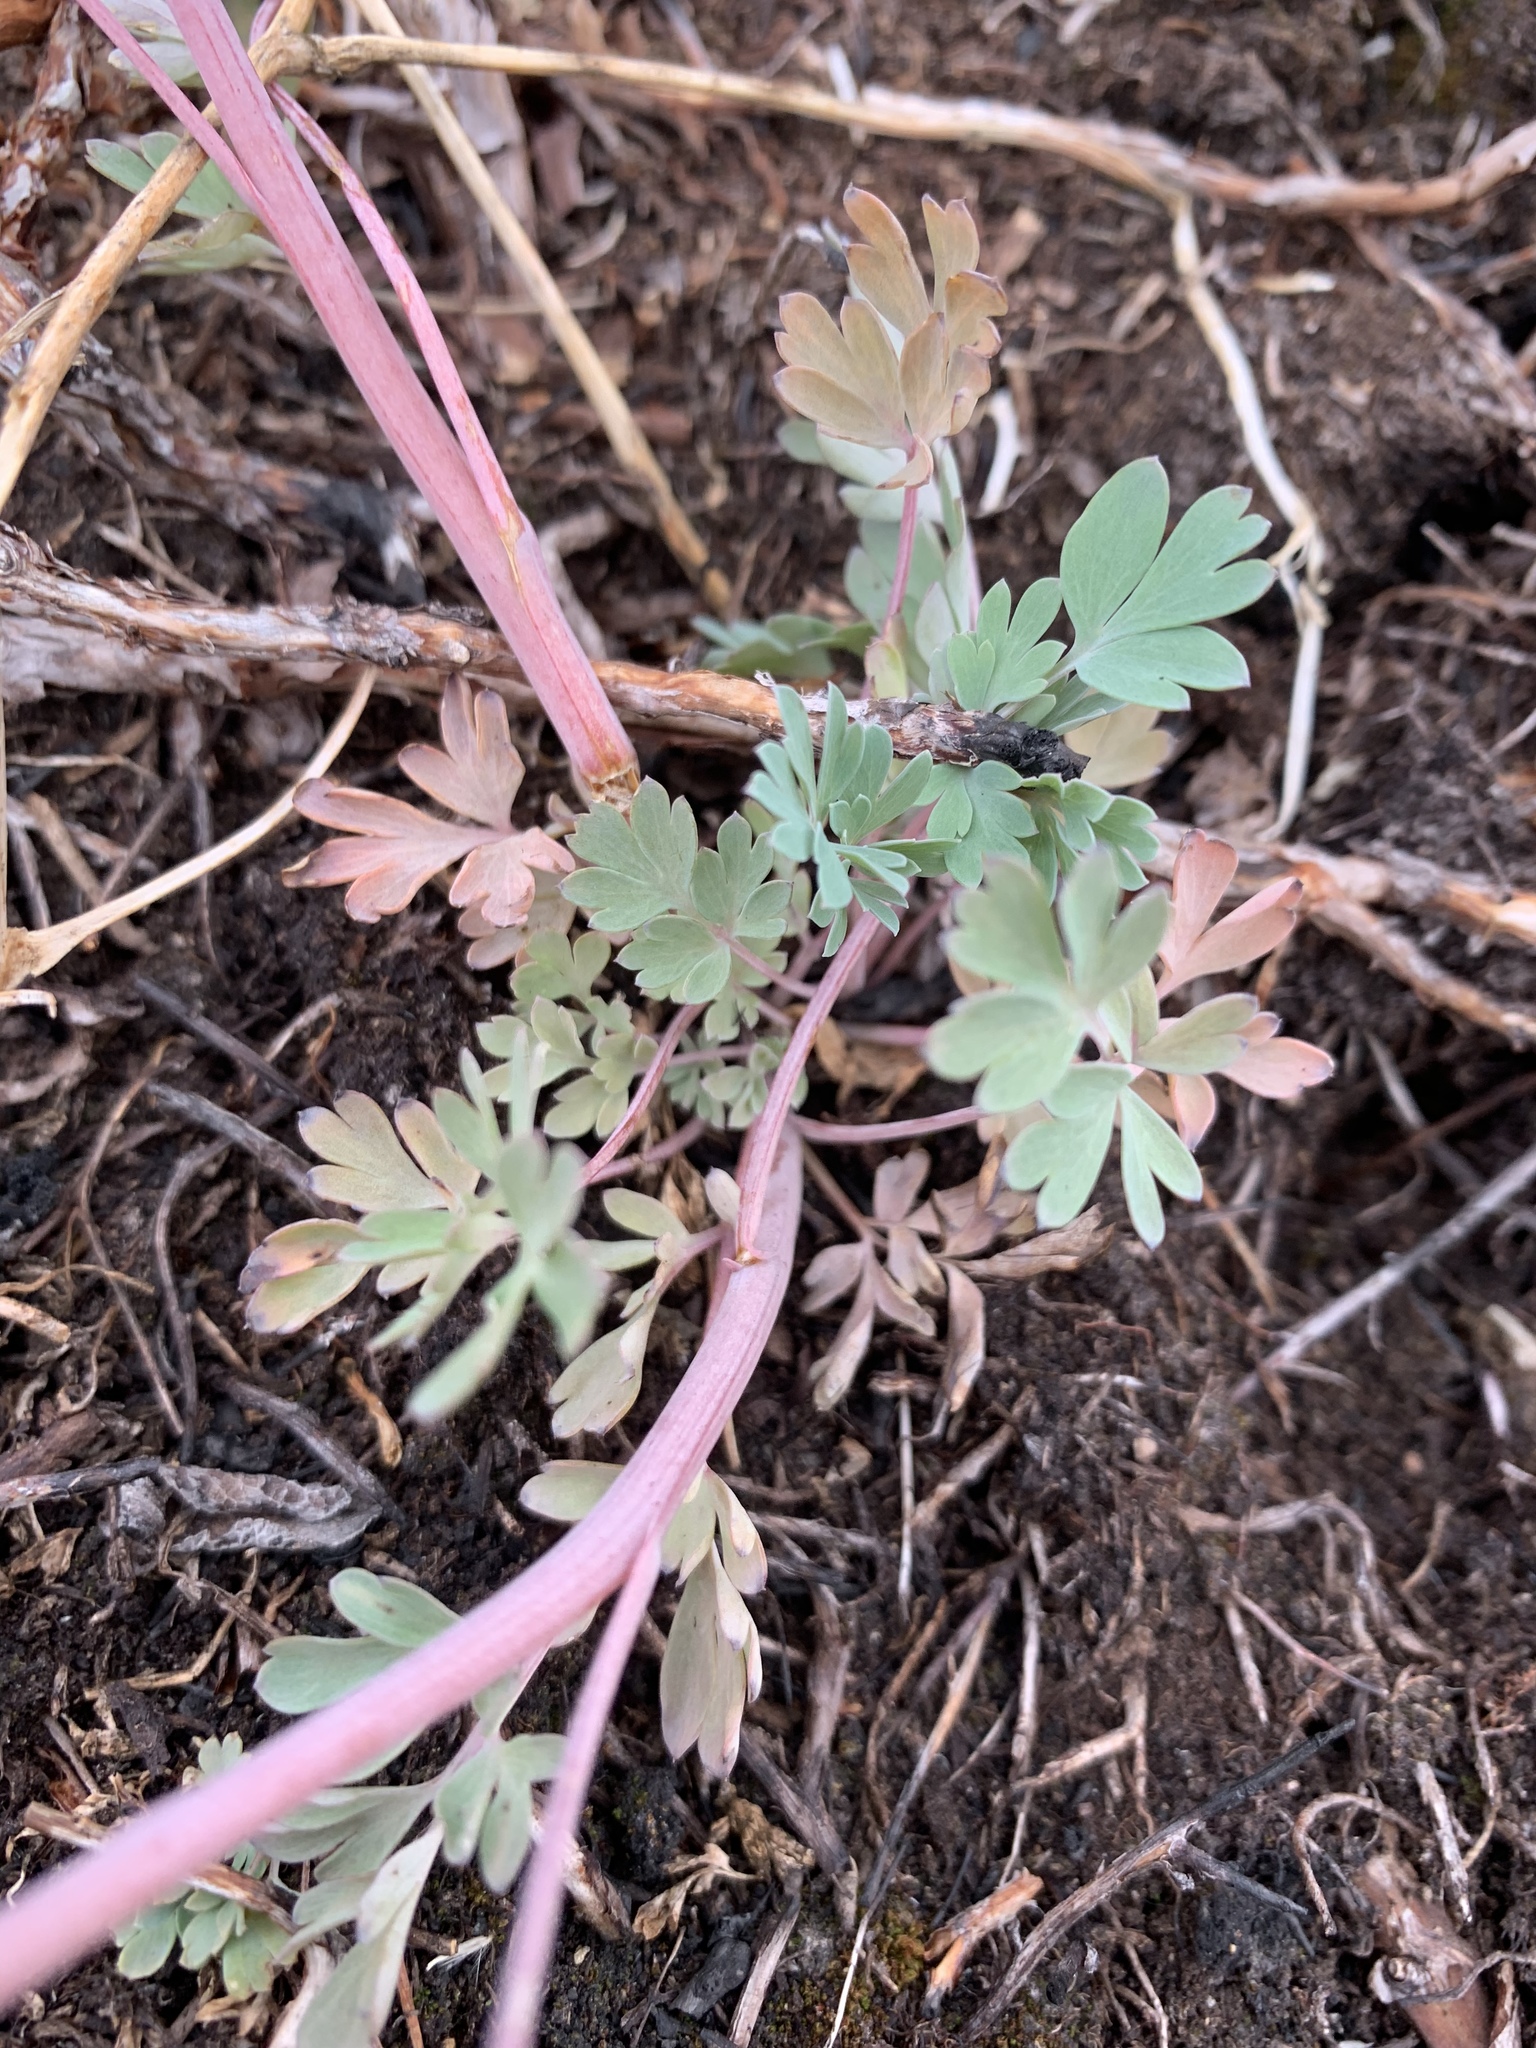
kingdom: Plantae
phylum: Tracheophyta
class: Magnoliopsida
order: Ranunculales
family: Papaveraceae
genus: Capnoides
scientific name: Capnoides sempervirens
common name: Rock harlequin
